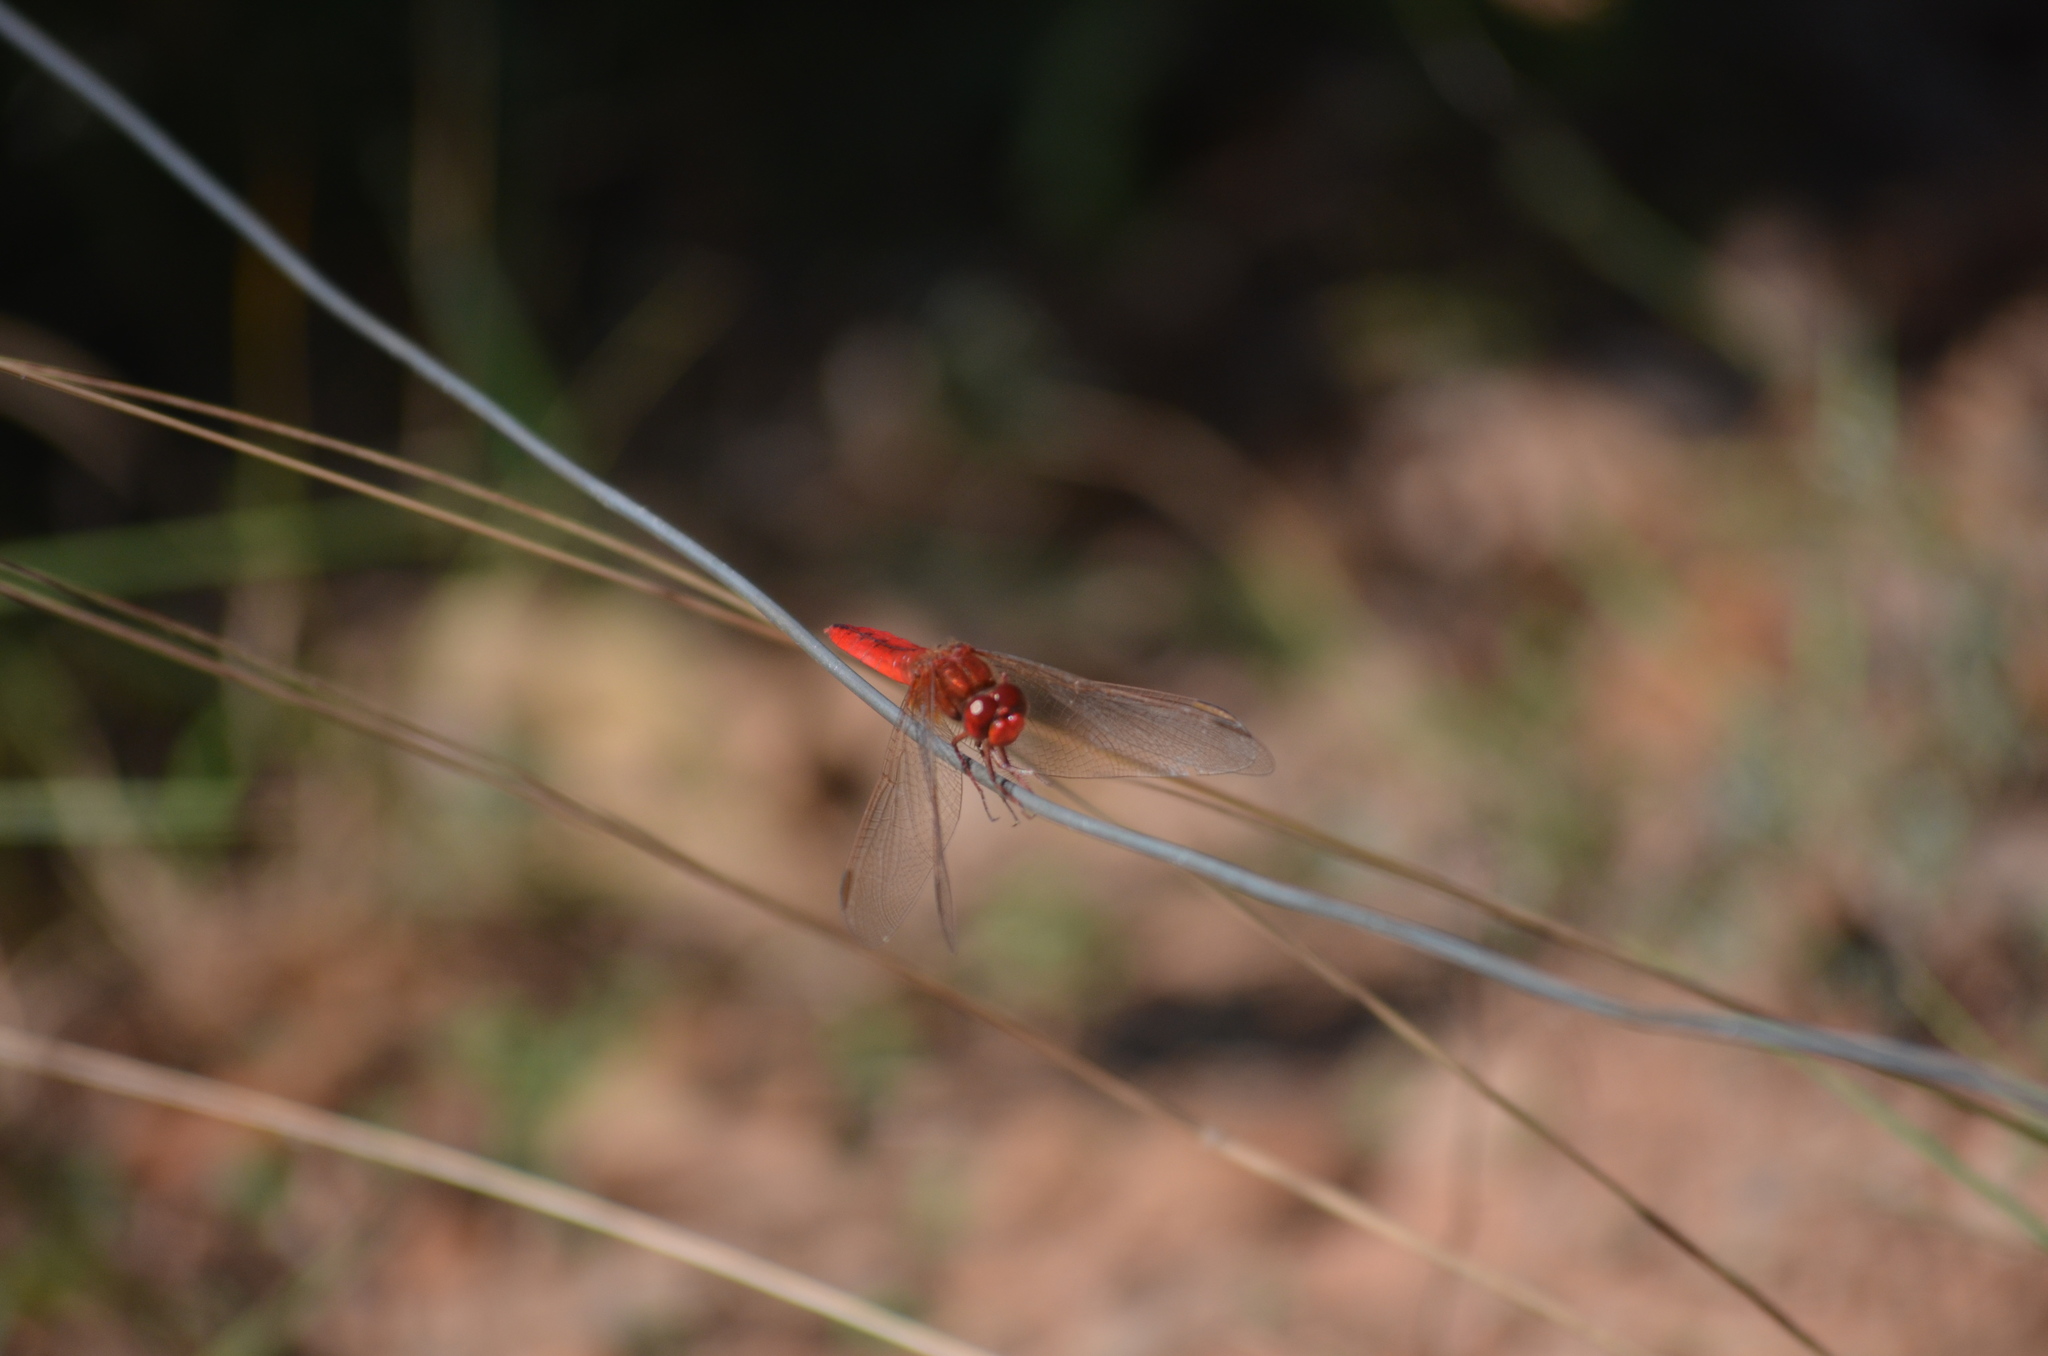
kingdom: Animalia
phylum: Arthropoda
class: Insecta
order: Odonata
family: Libellulidae
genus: Crocothemis
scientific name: Crocothemis erythraea
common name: Scarlet dragonfly
